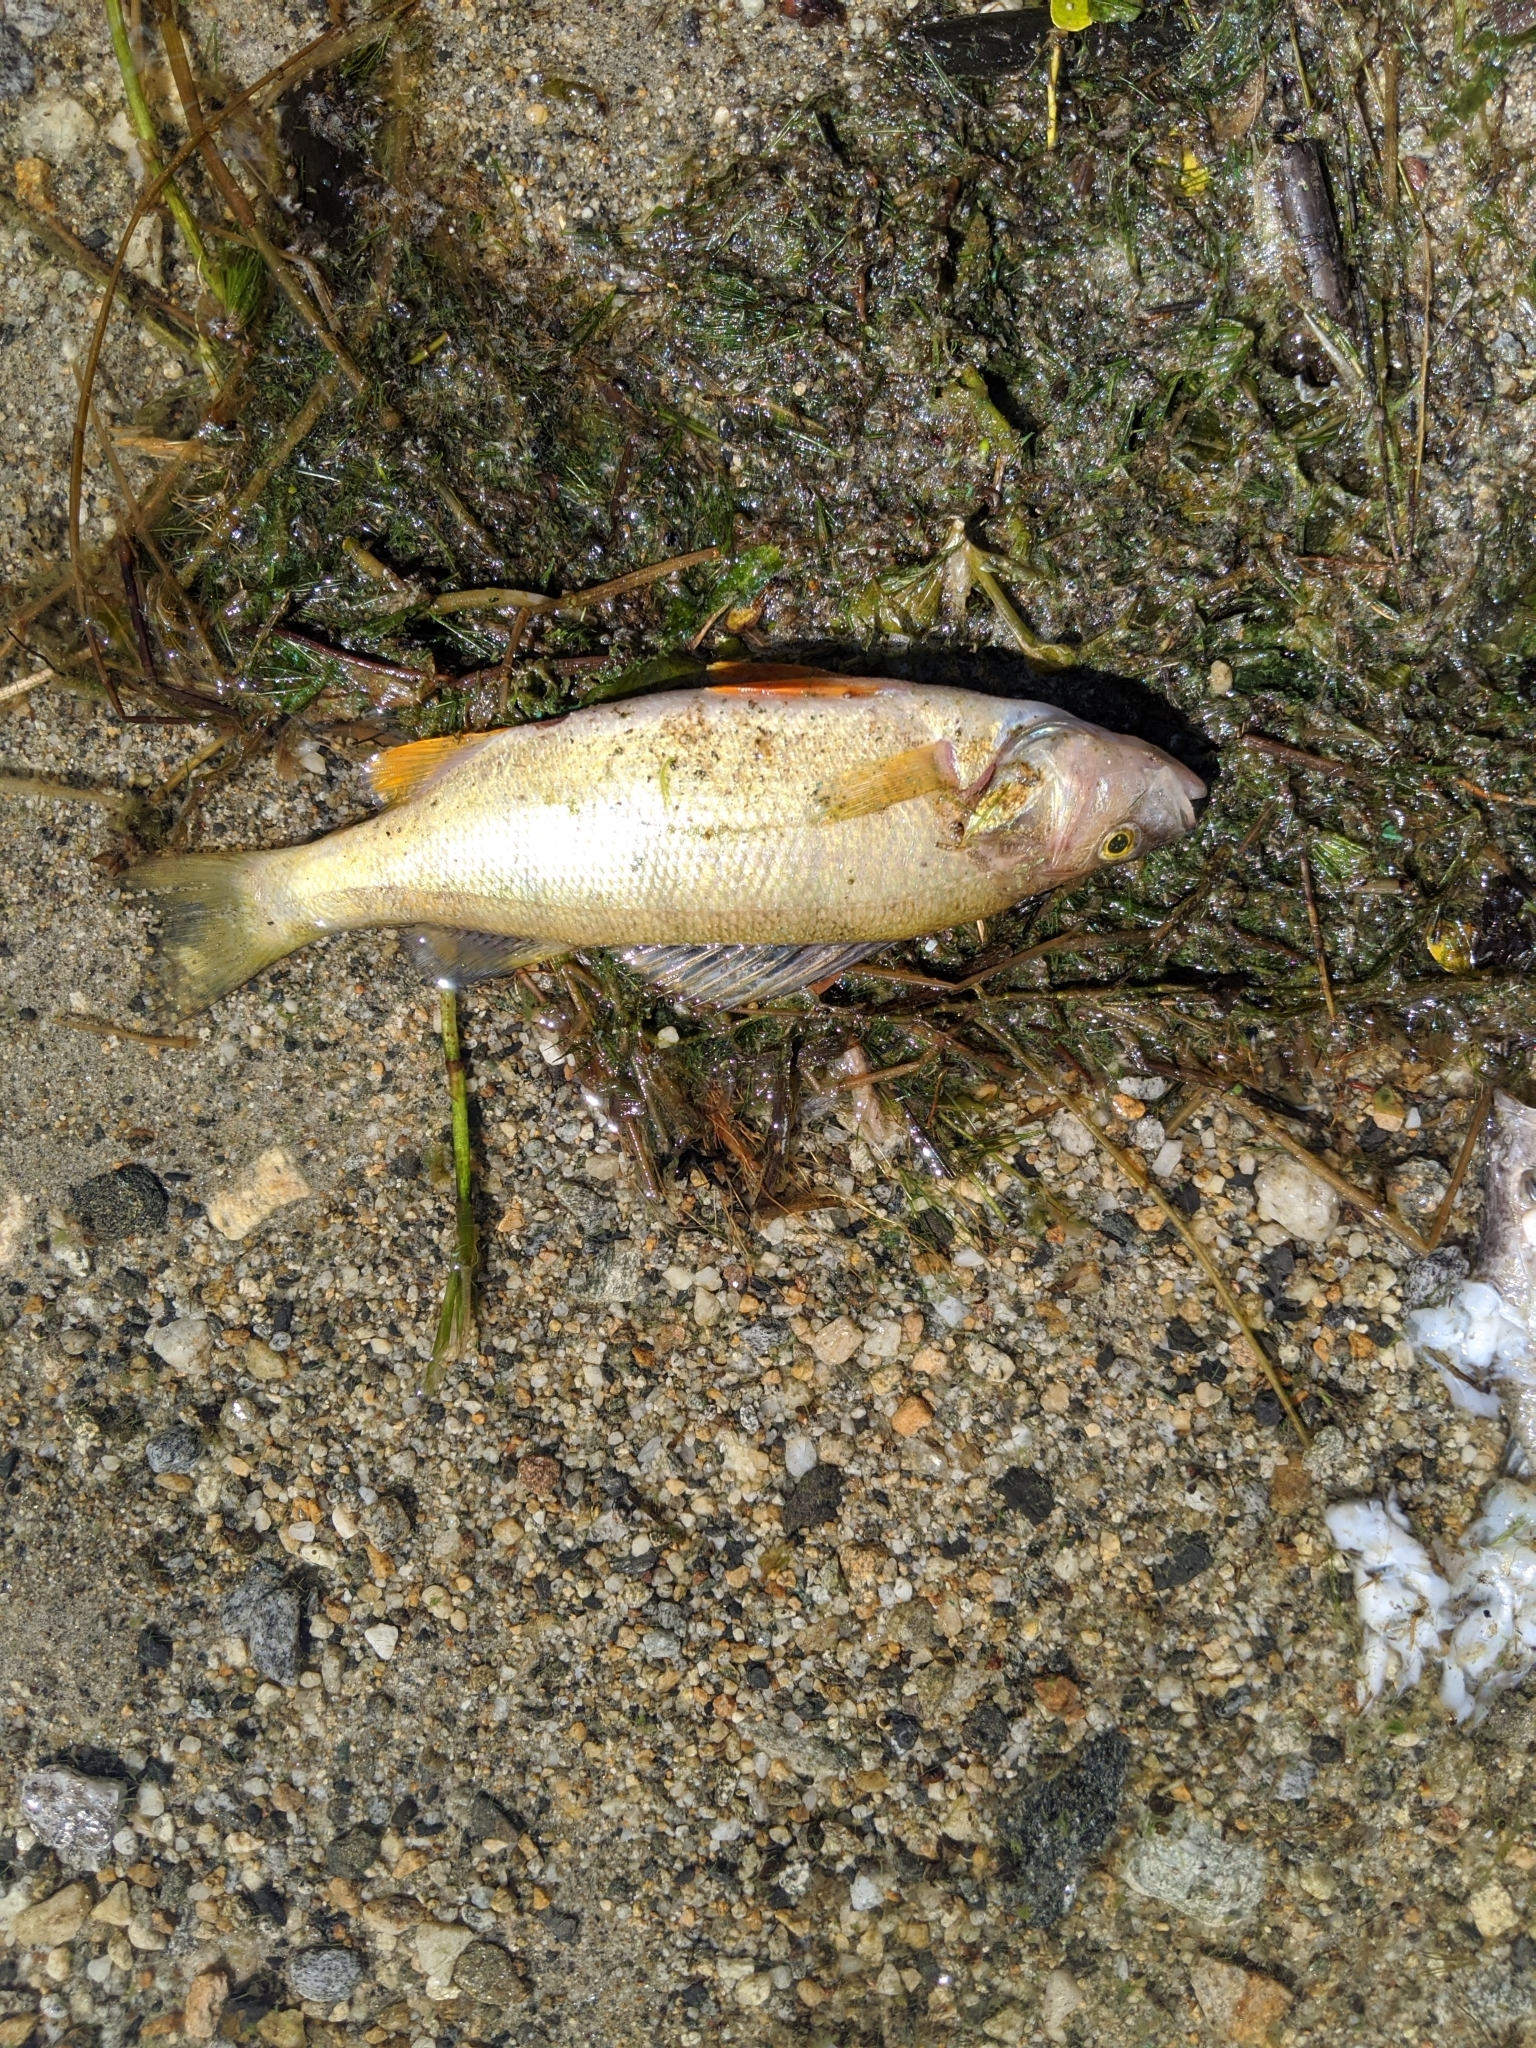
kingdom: Animalia
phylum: Chordata
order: Perciformes
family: Percidae
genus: Perca
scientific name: Perca flavescens
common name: Yellow perch
